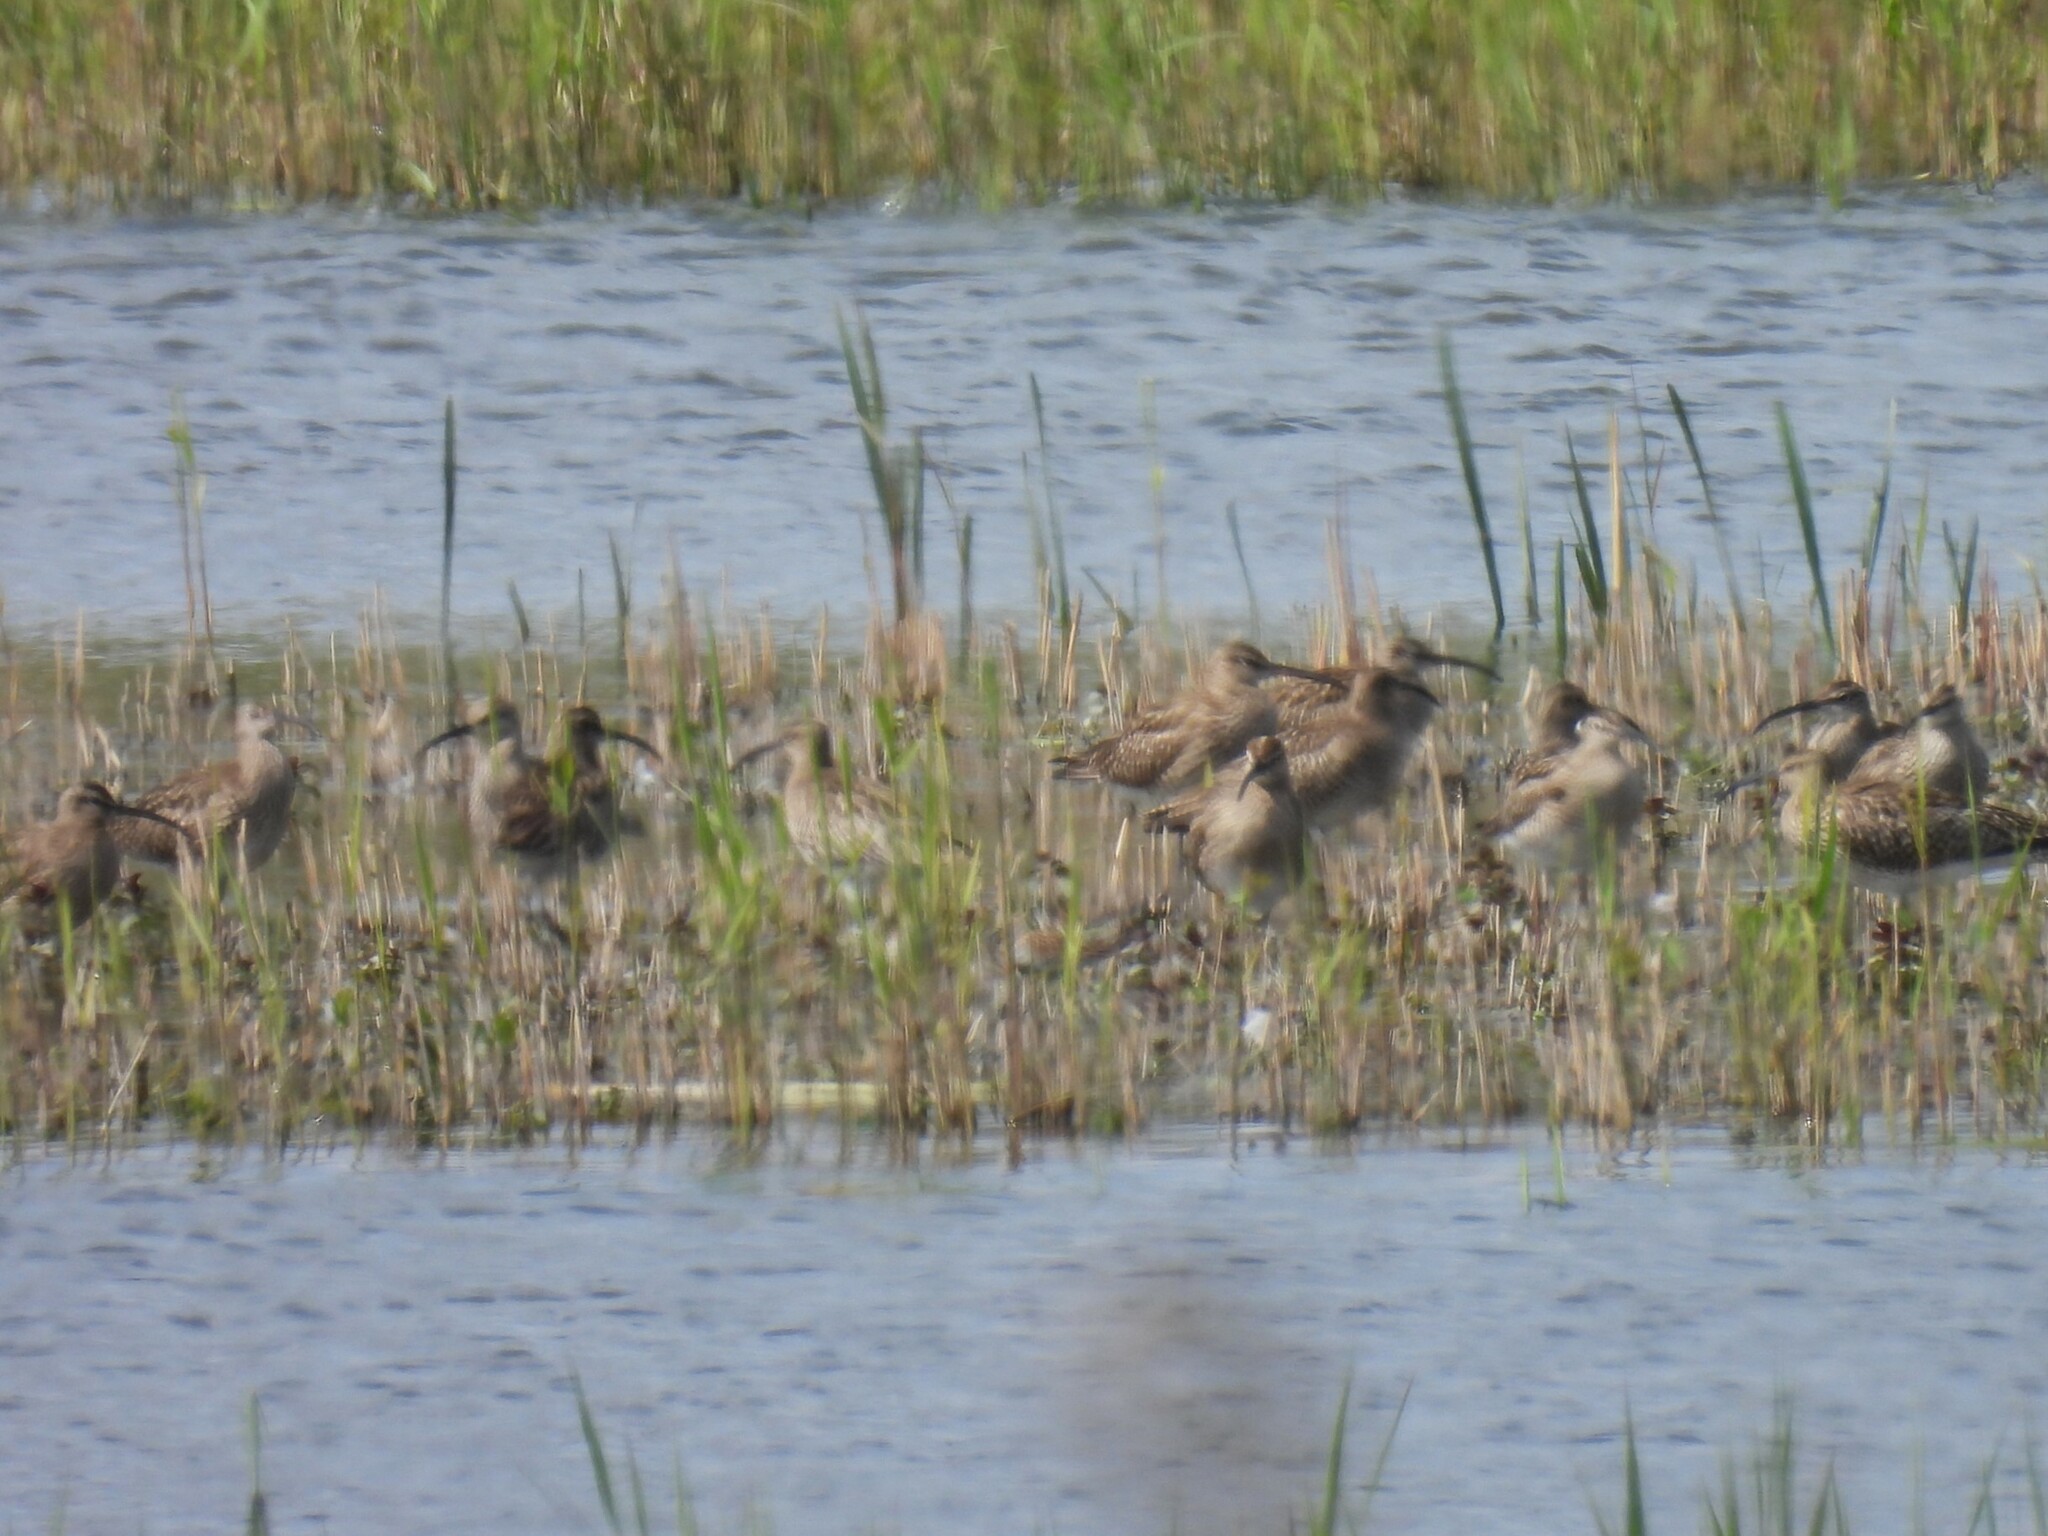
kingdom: Animalia
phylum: Chordata
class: Aves
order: Charadriiformes
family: Scolopacidae
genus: Numenius
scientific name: Numenius phaeopus
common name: Whimbrel
